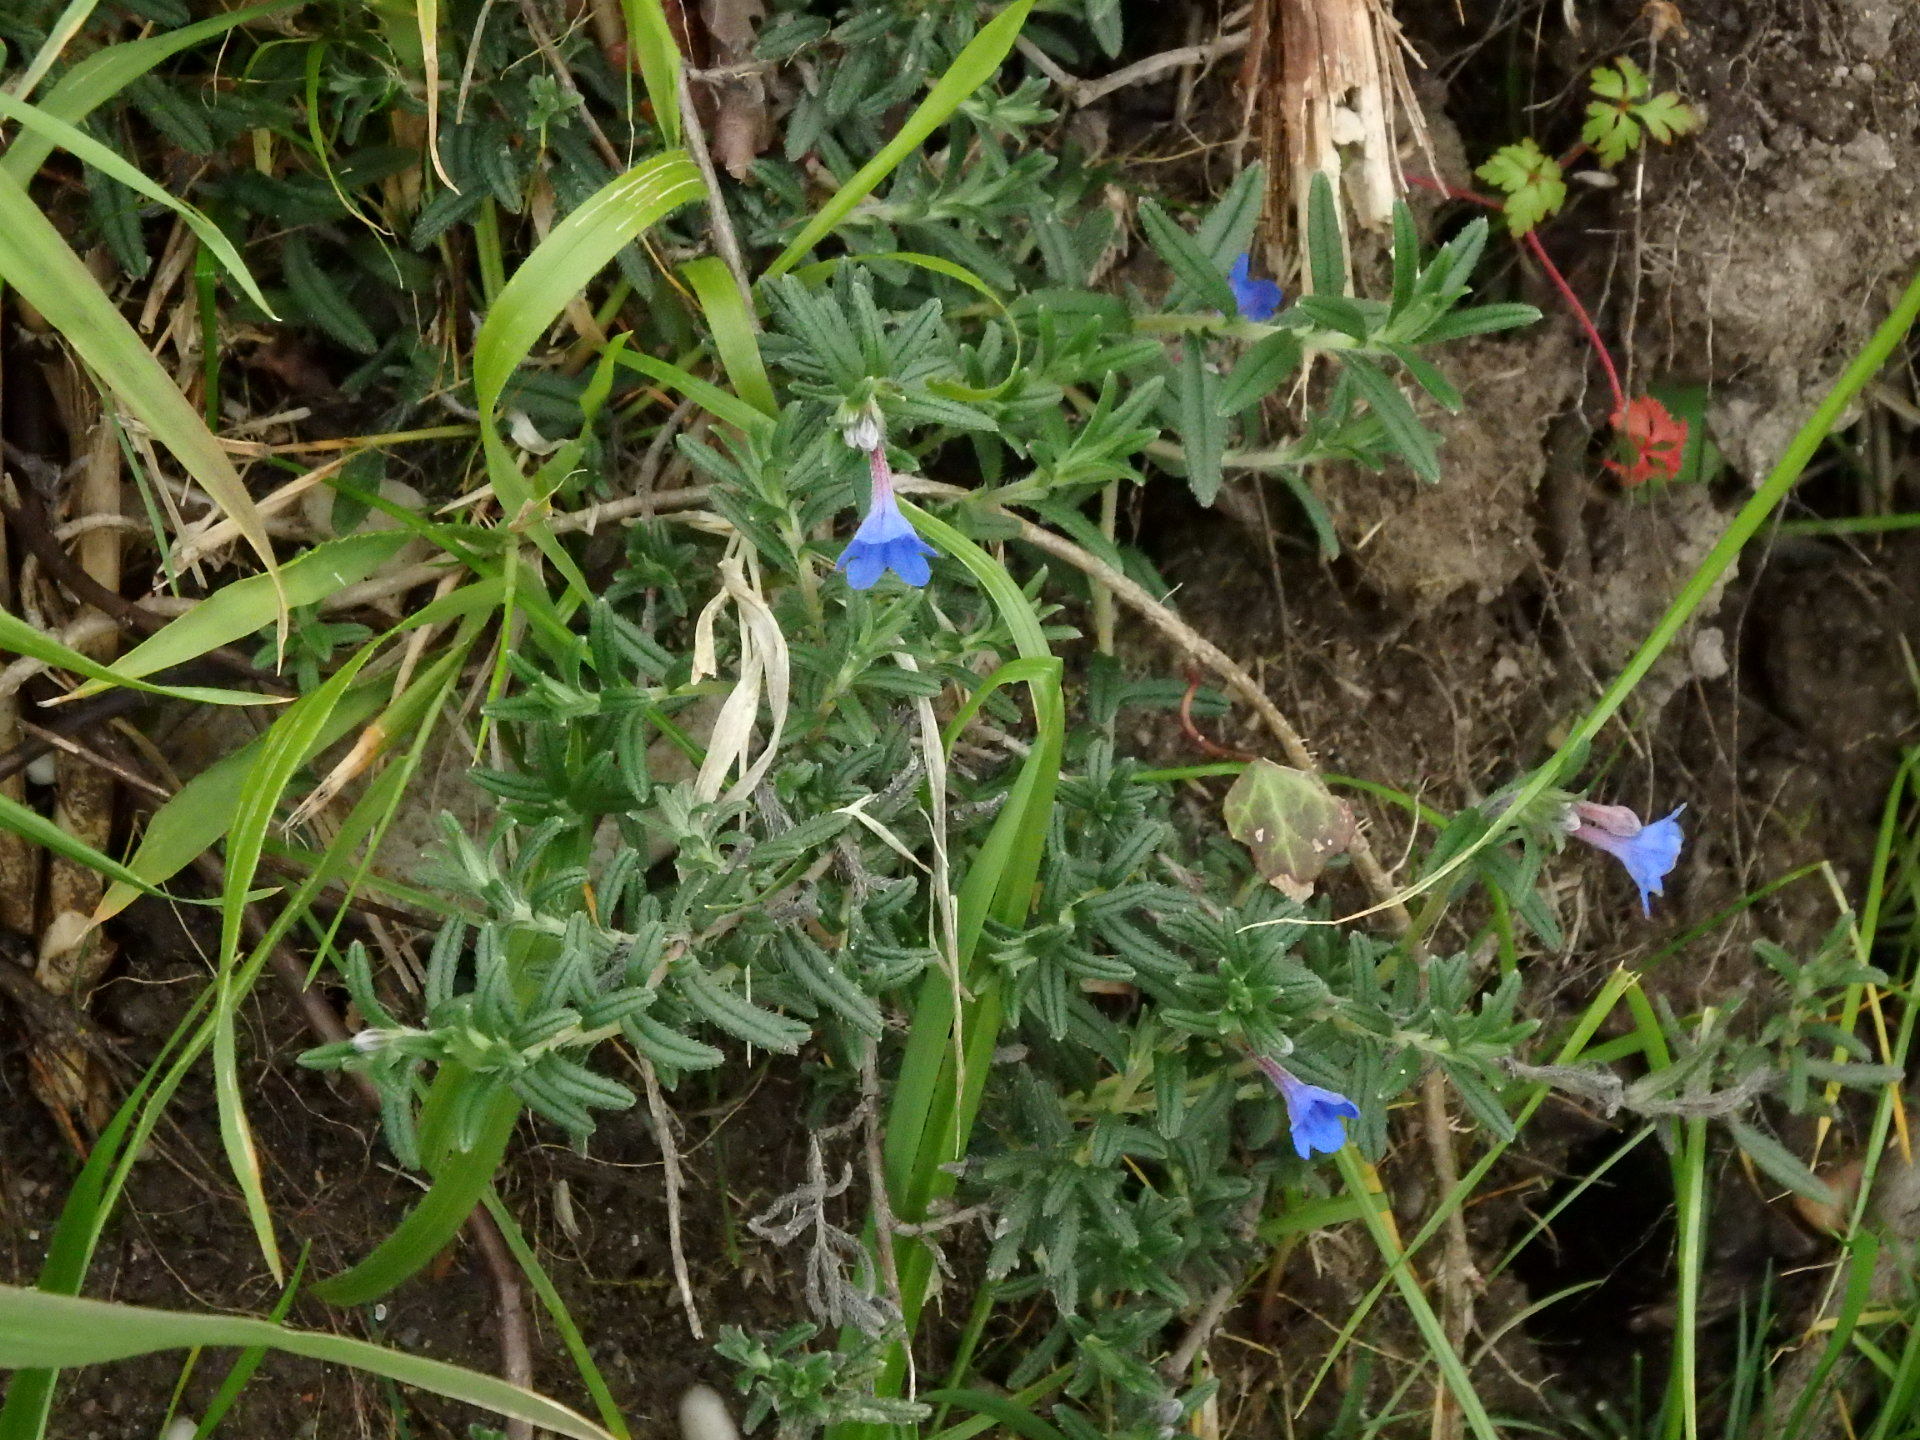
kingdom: Plantae
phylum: Tracheophyta
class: Magnoliopsida
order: Boraginales
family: Boraginaceae
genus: Glandora
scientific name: Glandora prostrata
